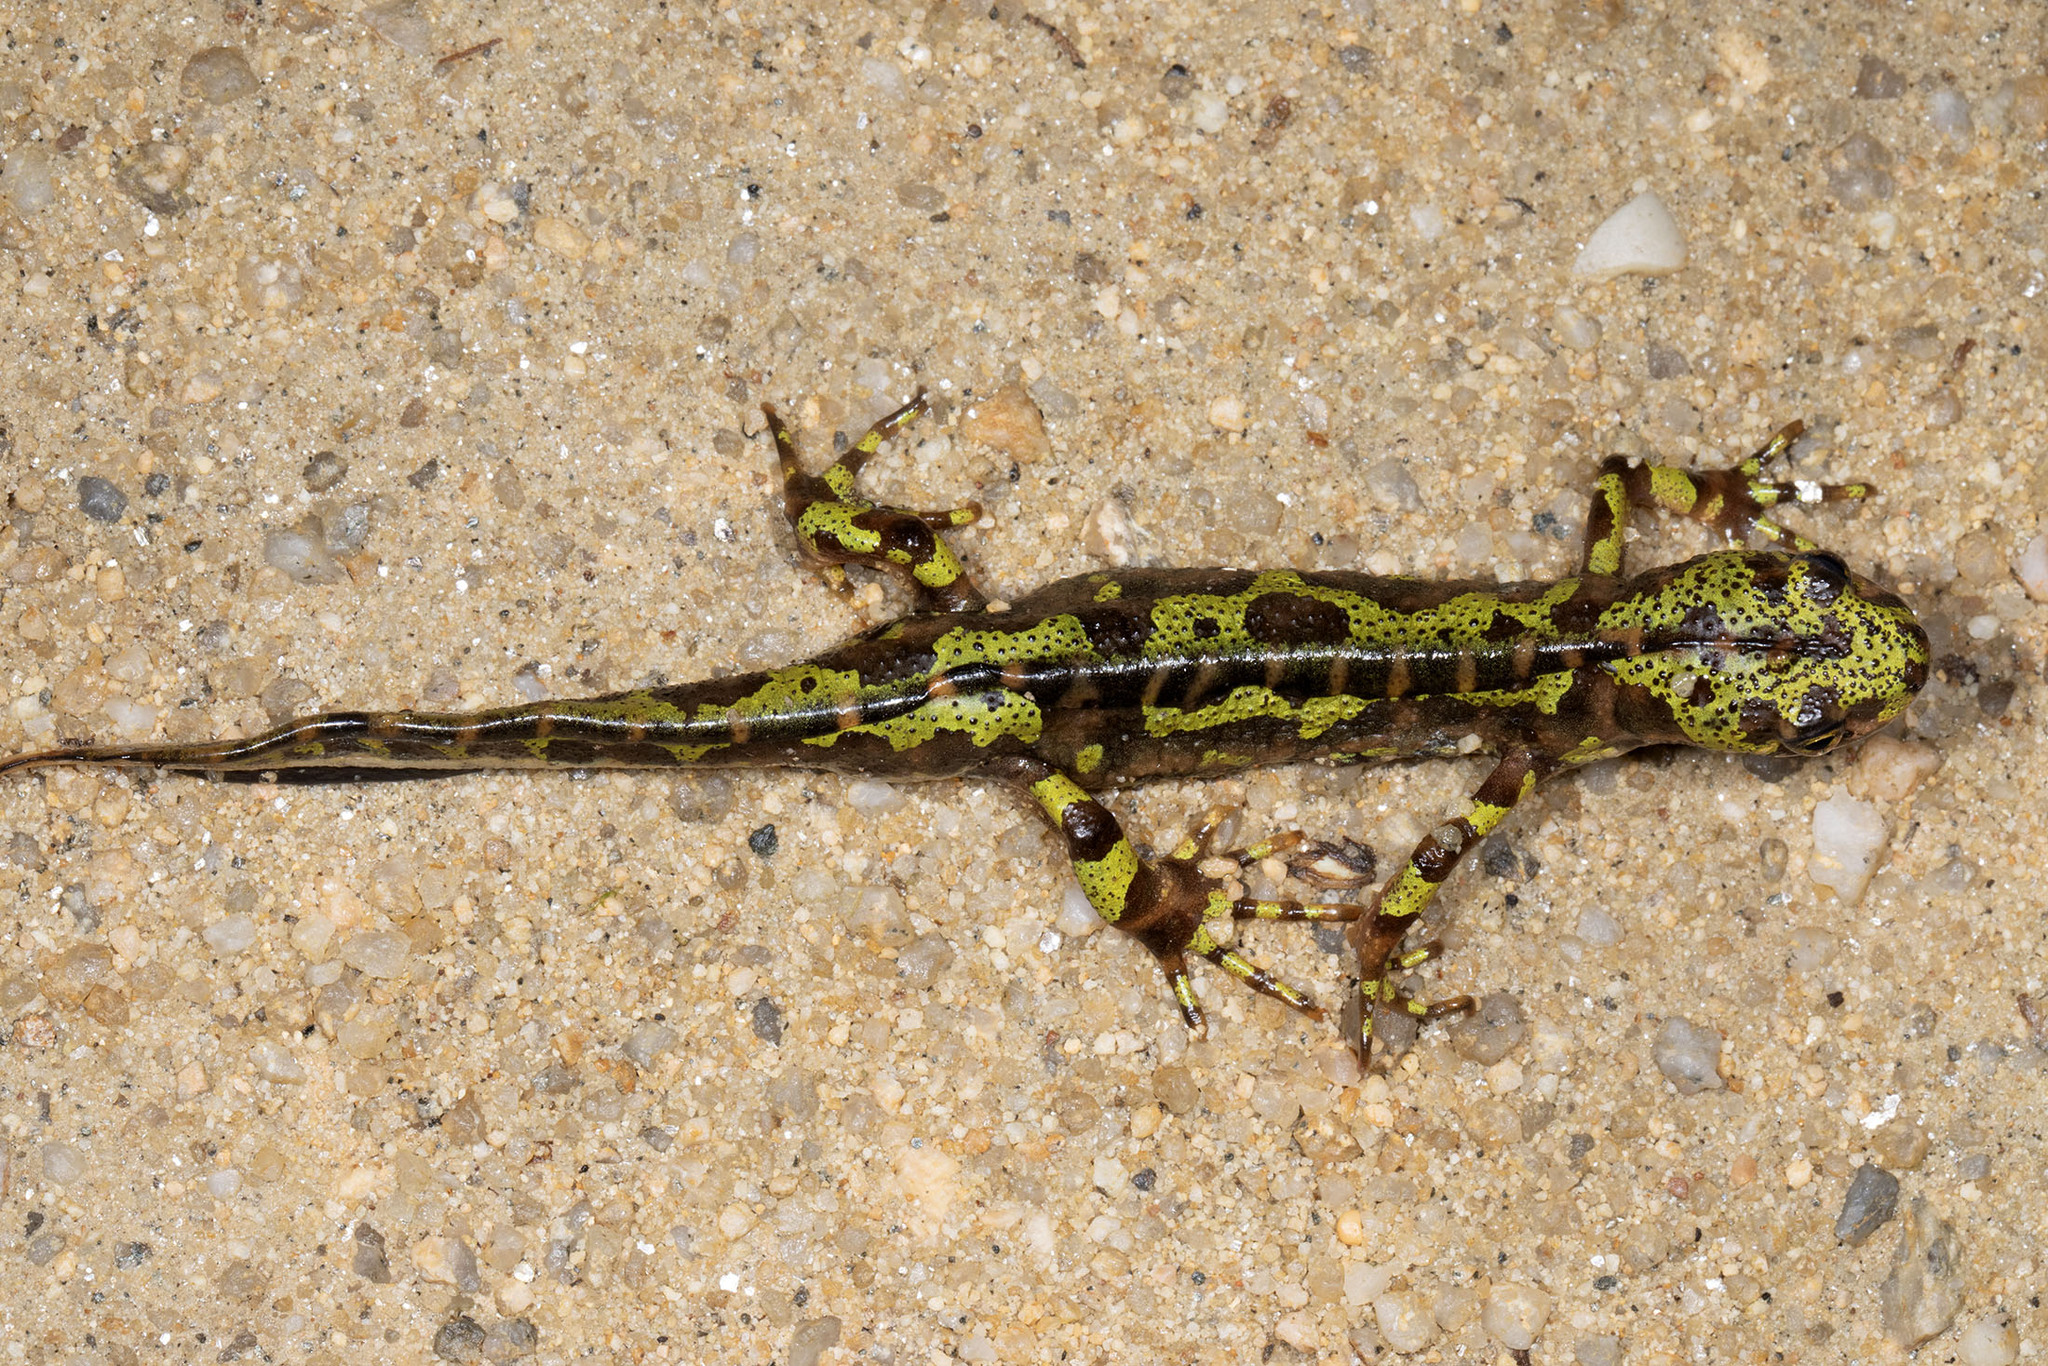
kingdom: Animalia
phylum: Chordata
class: Amphibia
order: Caudata
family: Salamandridae
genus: Triturus
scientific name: Triturus marmoratus
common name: Marbled newt
